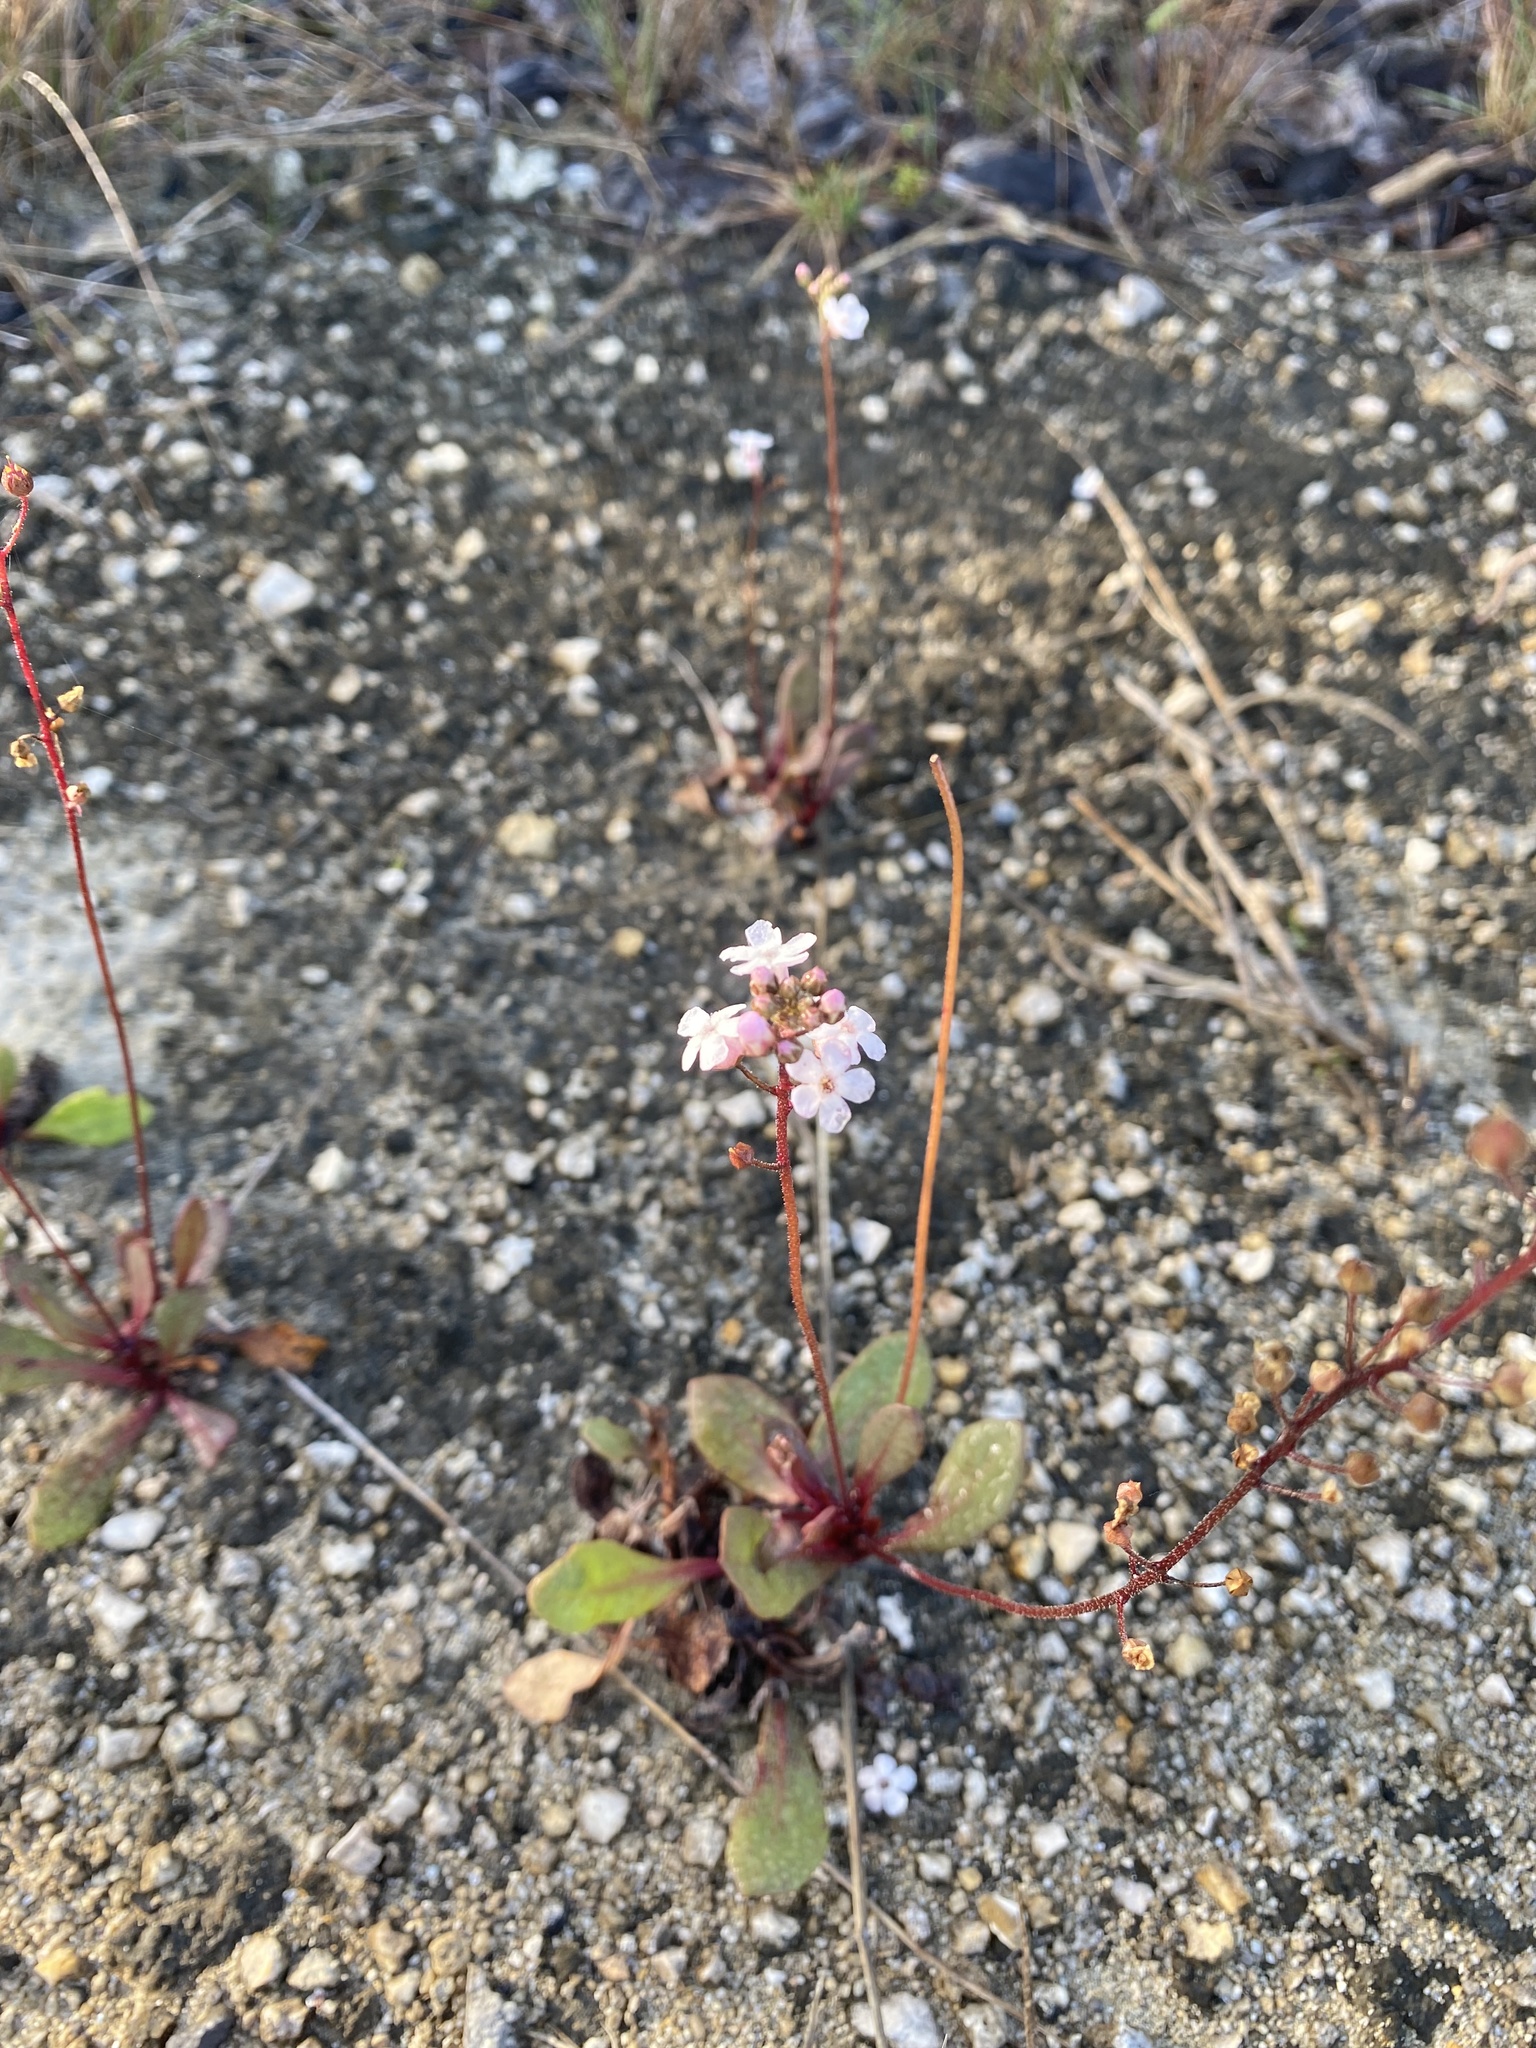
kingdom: Plantae
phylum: Tracheophyta
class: Magnoliopsida
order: Ericales
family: Primulaceae
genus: Samolus
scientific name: Samolus ebracteatus
